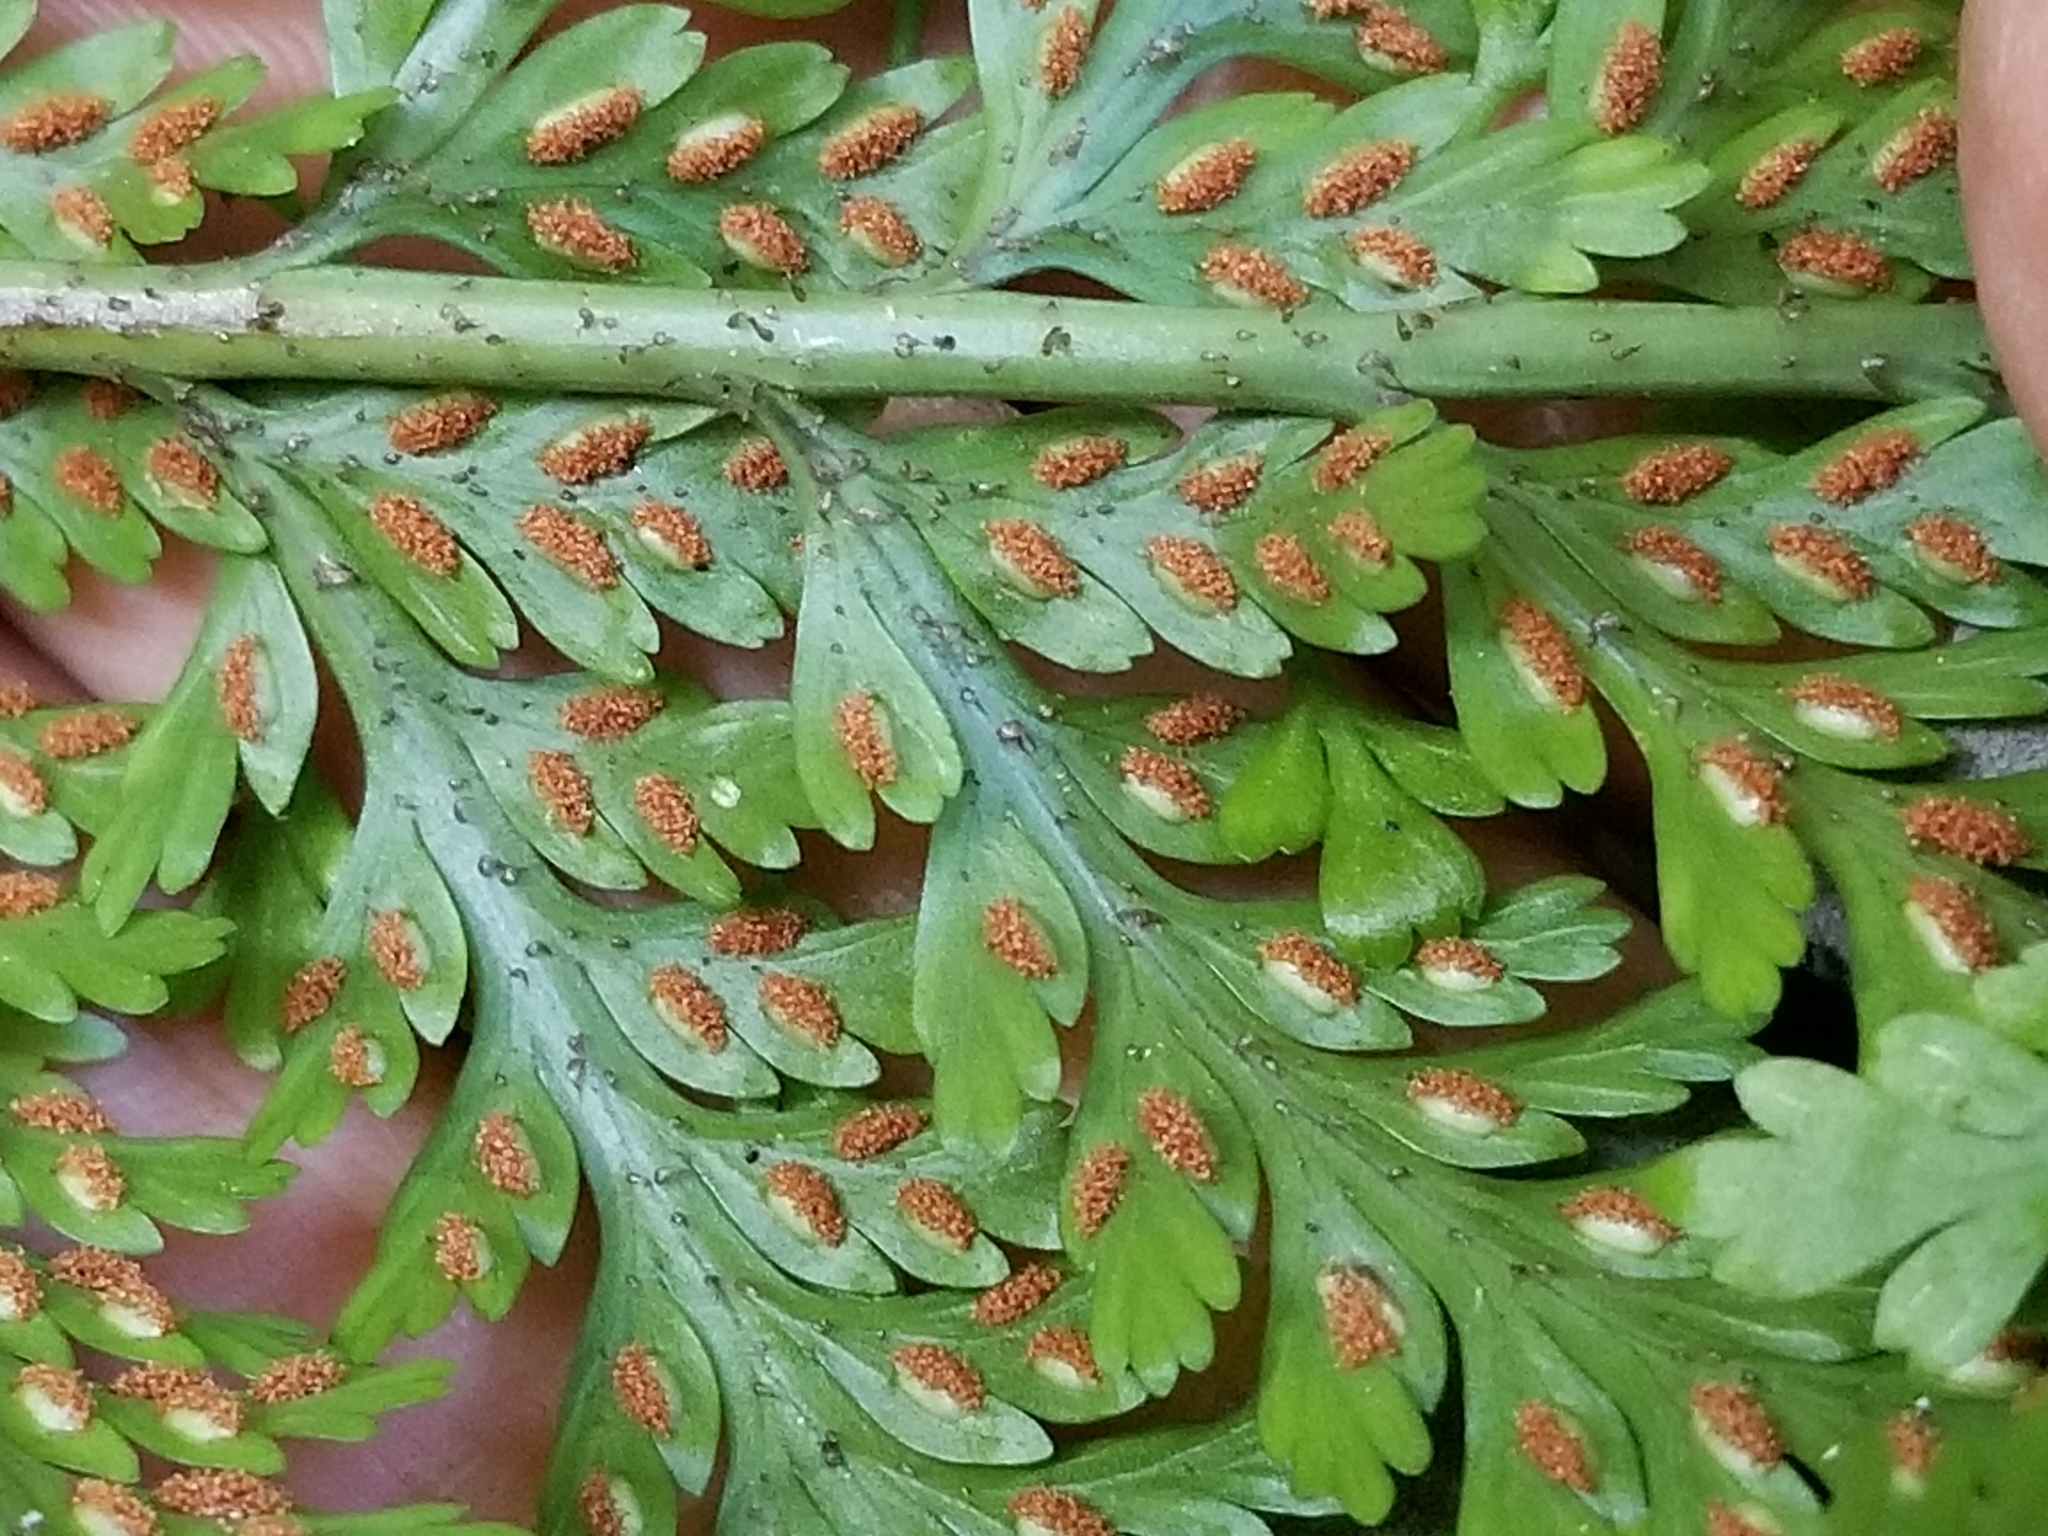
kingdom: Plantae
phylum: Tracheophyta
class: Polypodiopsida
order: Polypodiales
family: Aspleniaceae
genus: Asplenium
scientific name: Asplenium bulbiferum
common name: Mother fern
